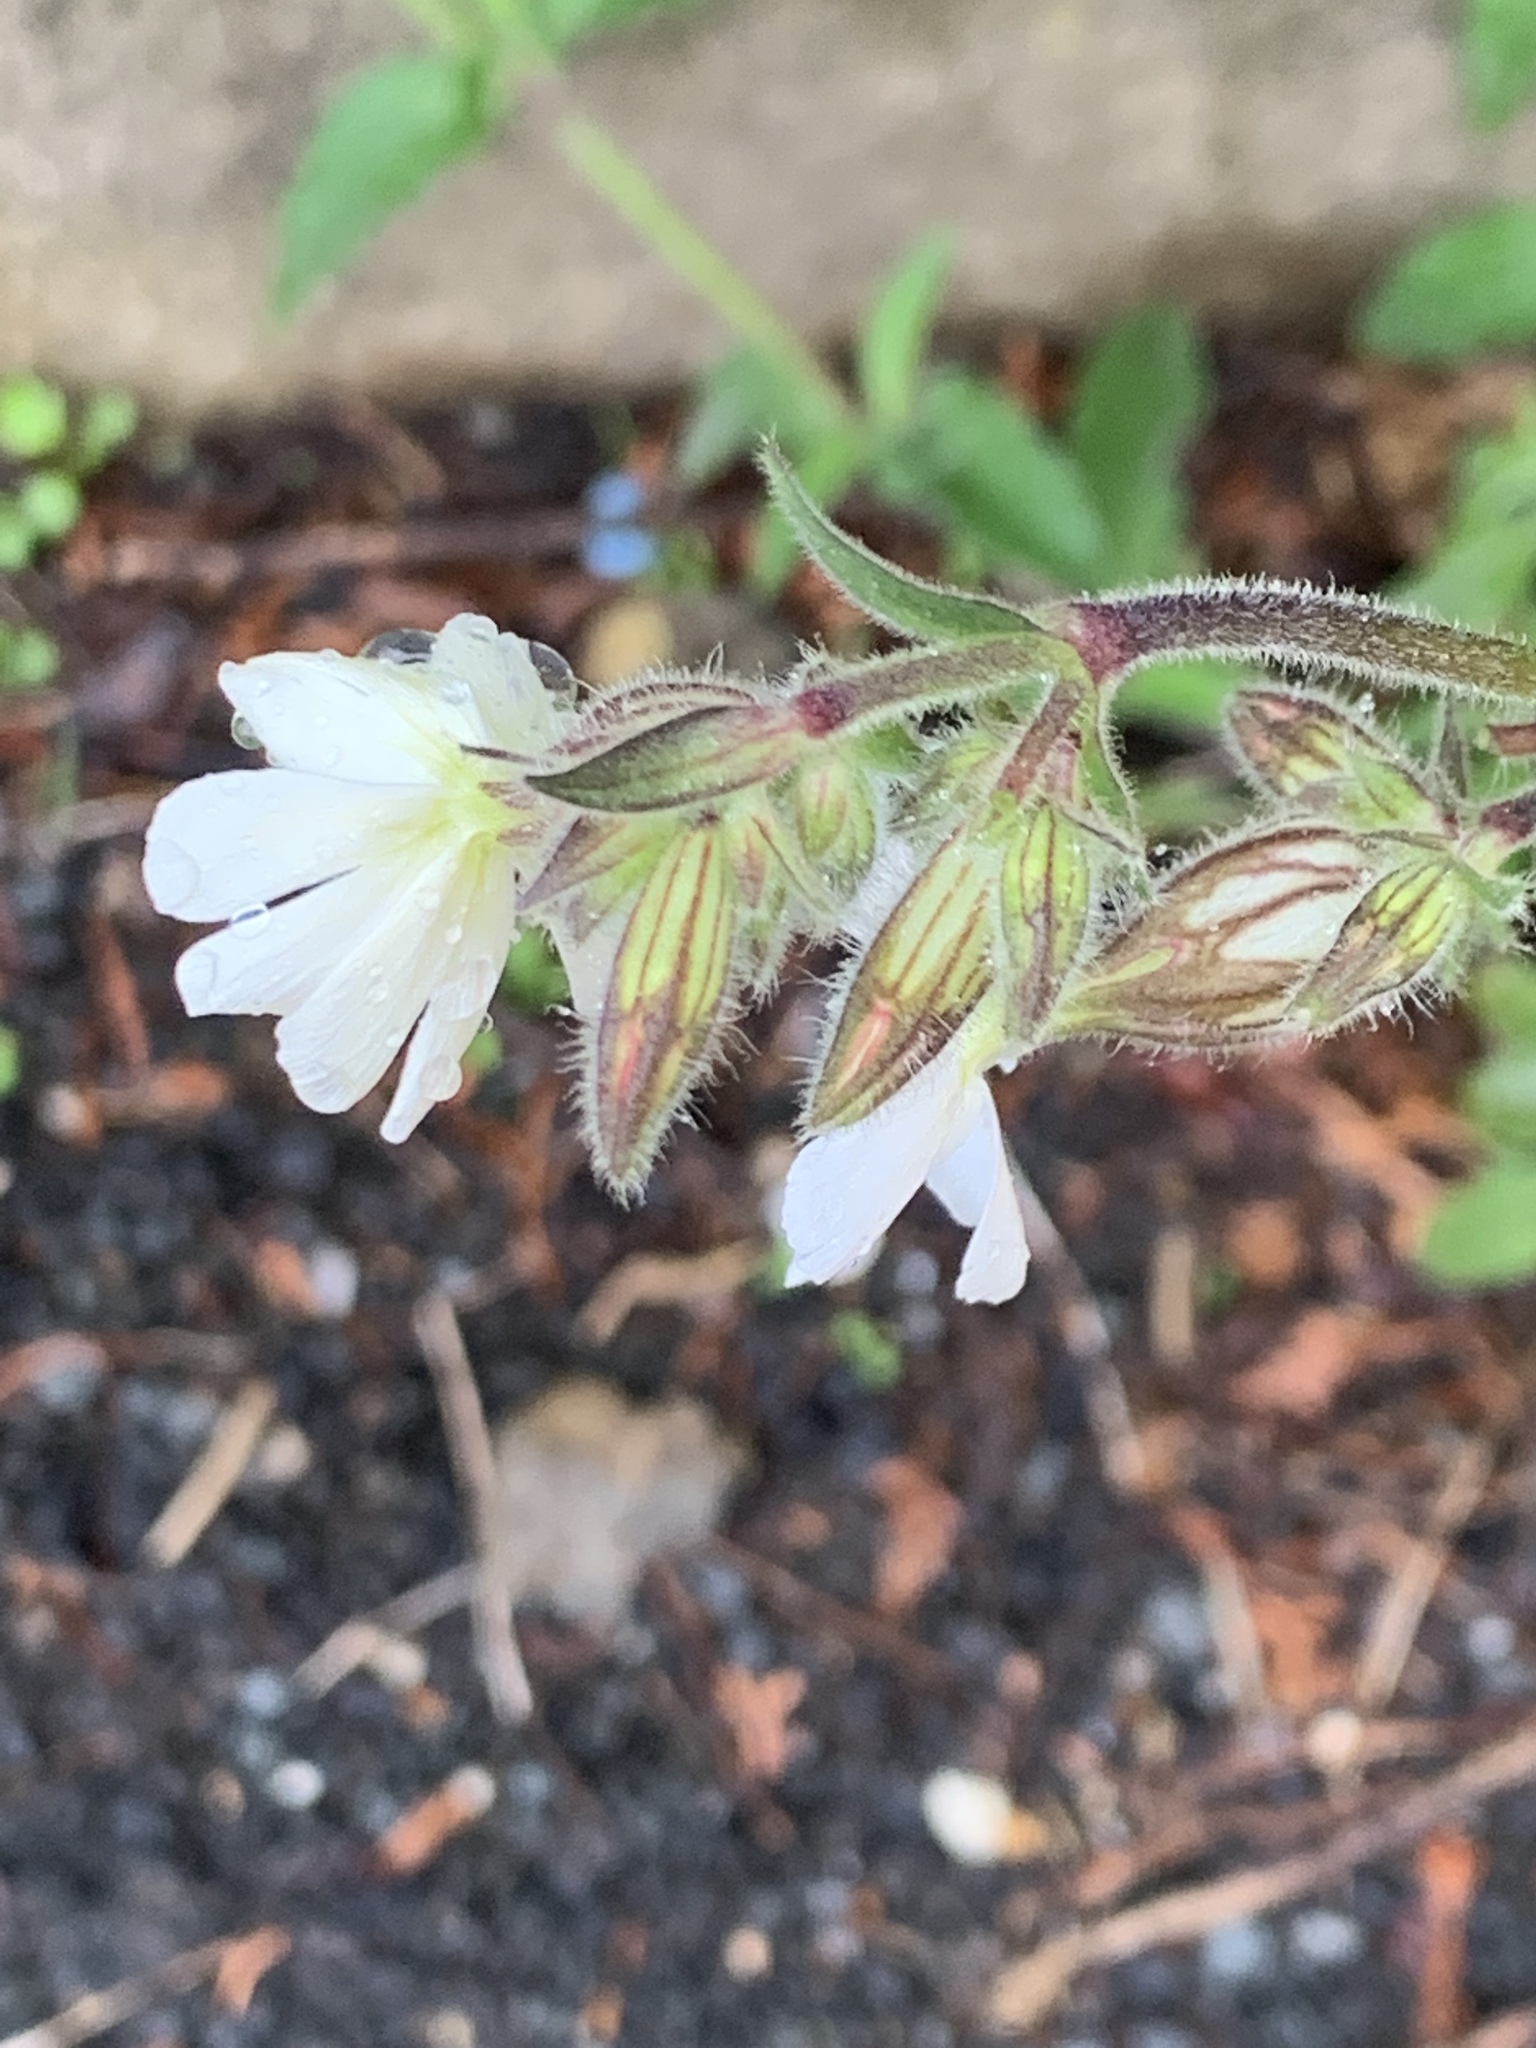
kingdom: Plantae
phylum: Tracheophyta
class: Magnoliopsida
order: Caryophyllales
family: Caryophyllaceae
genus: Silene
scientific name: Silene latifolia
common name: White campion
